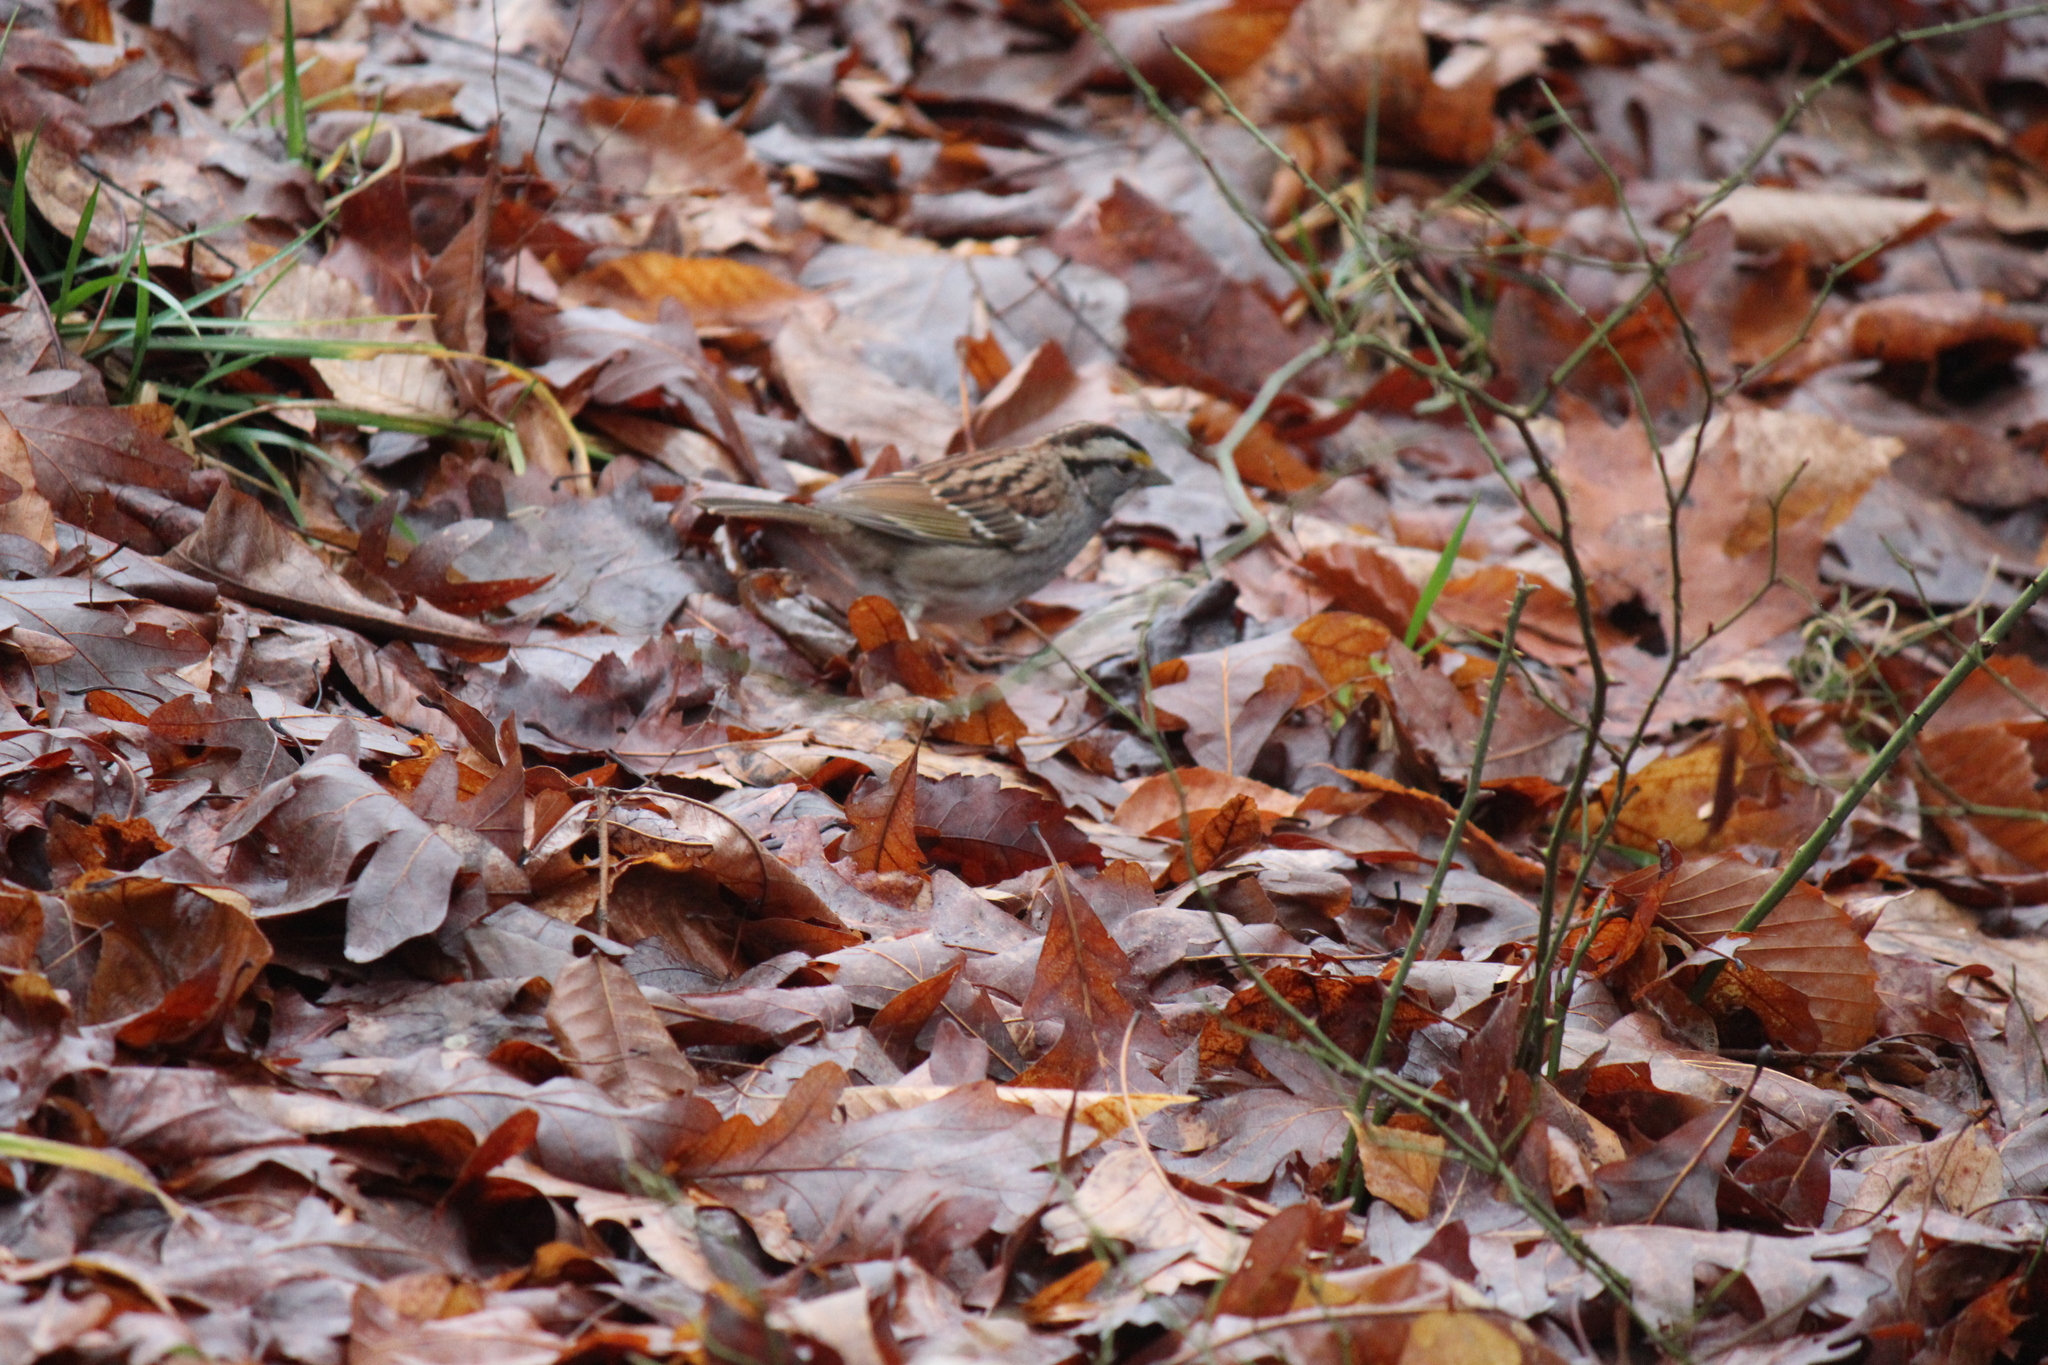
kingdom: Animalia
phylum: Chordata
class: Aves
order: Passeriformes
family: Passerellidae
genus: Zonotrichia
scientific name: Zonotrichia albicollis
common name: White-throated sparrow
